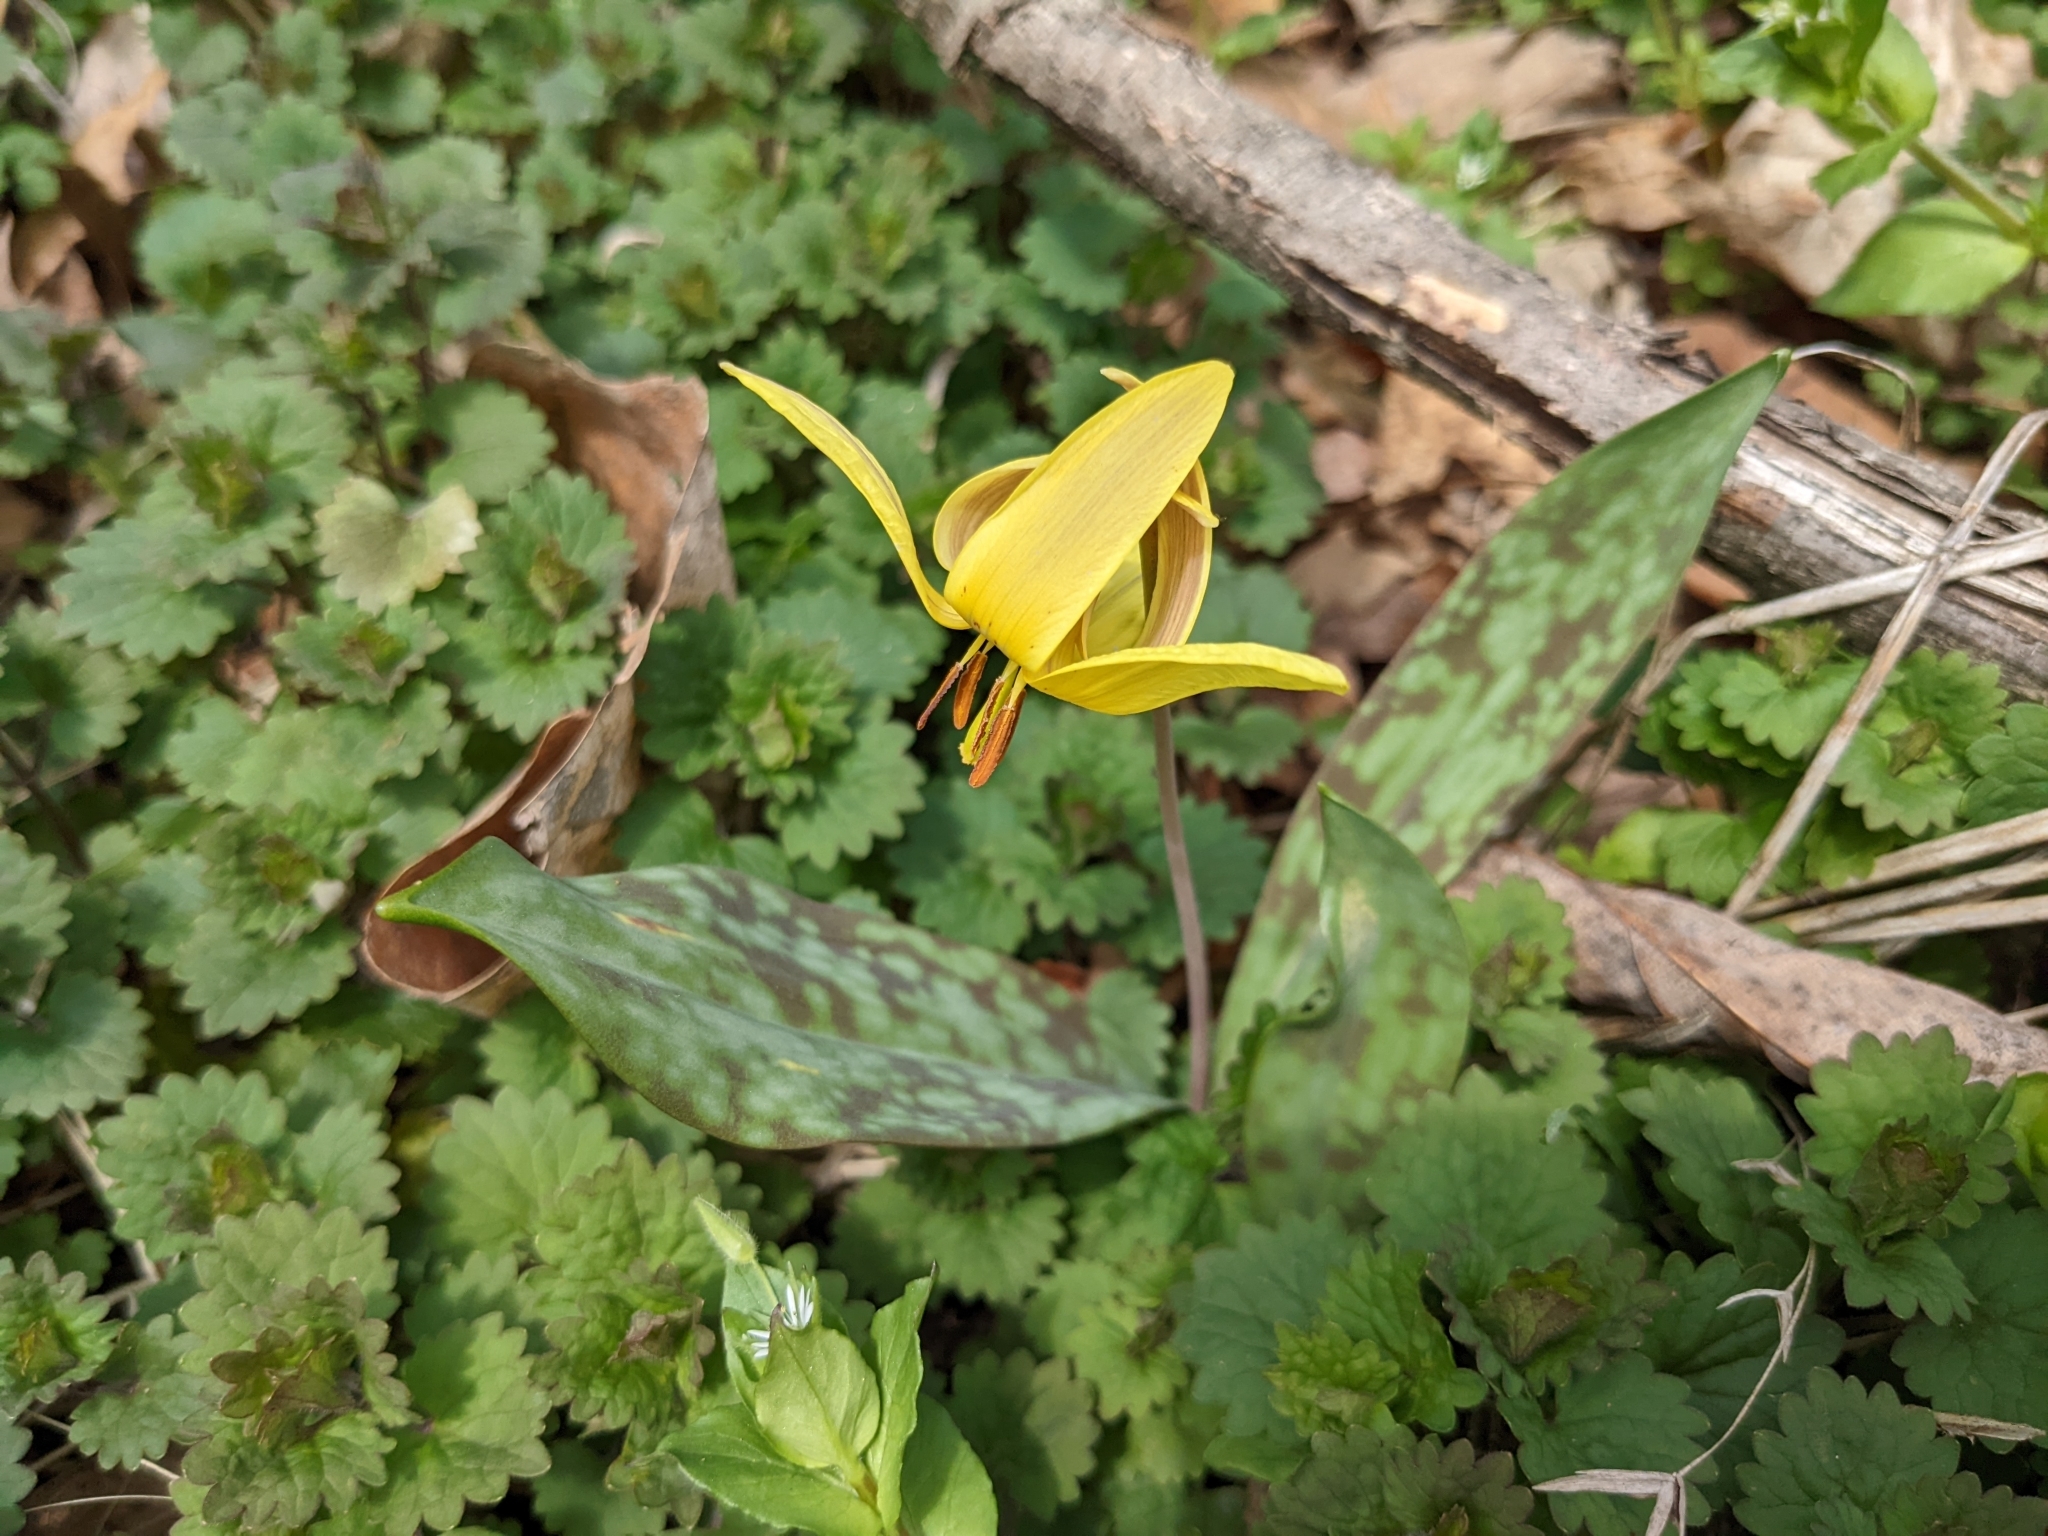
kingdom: Plantae
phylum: Tracheophyta
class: Liliopsida
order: Liliales
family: Liliaceae
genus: Erythronium
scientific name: Erythronium americanum
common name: Yellow adder's-tongue
